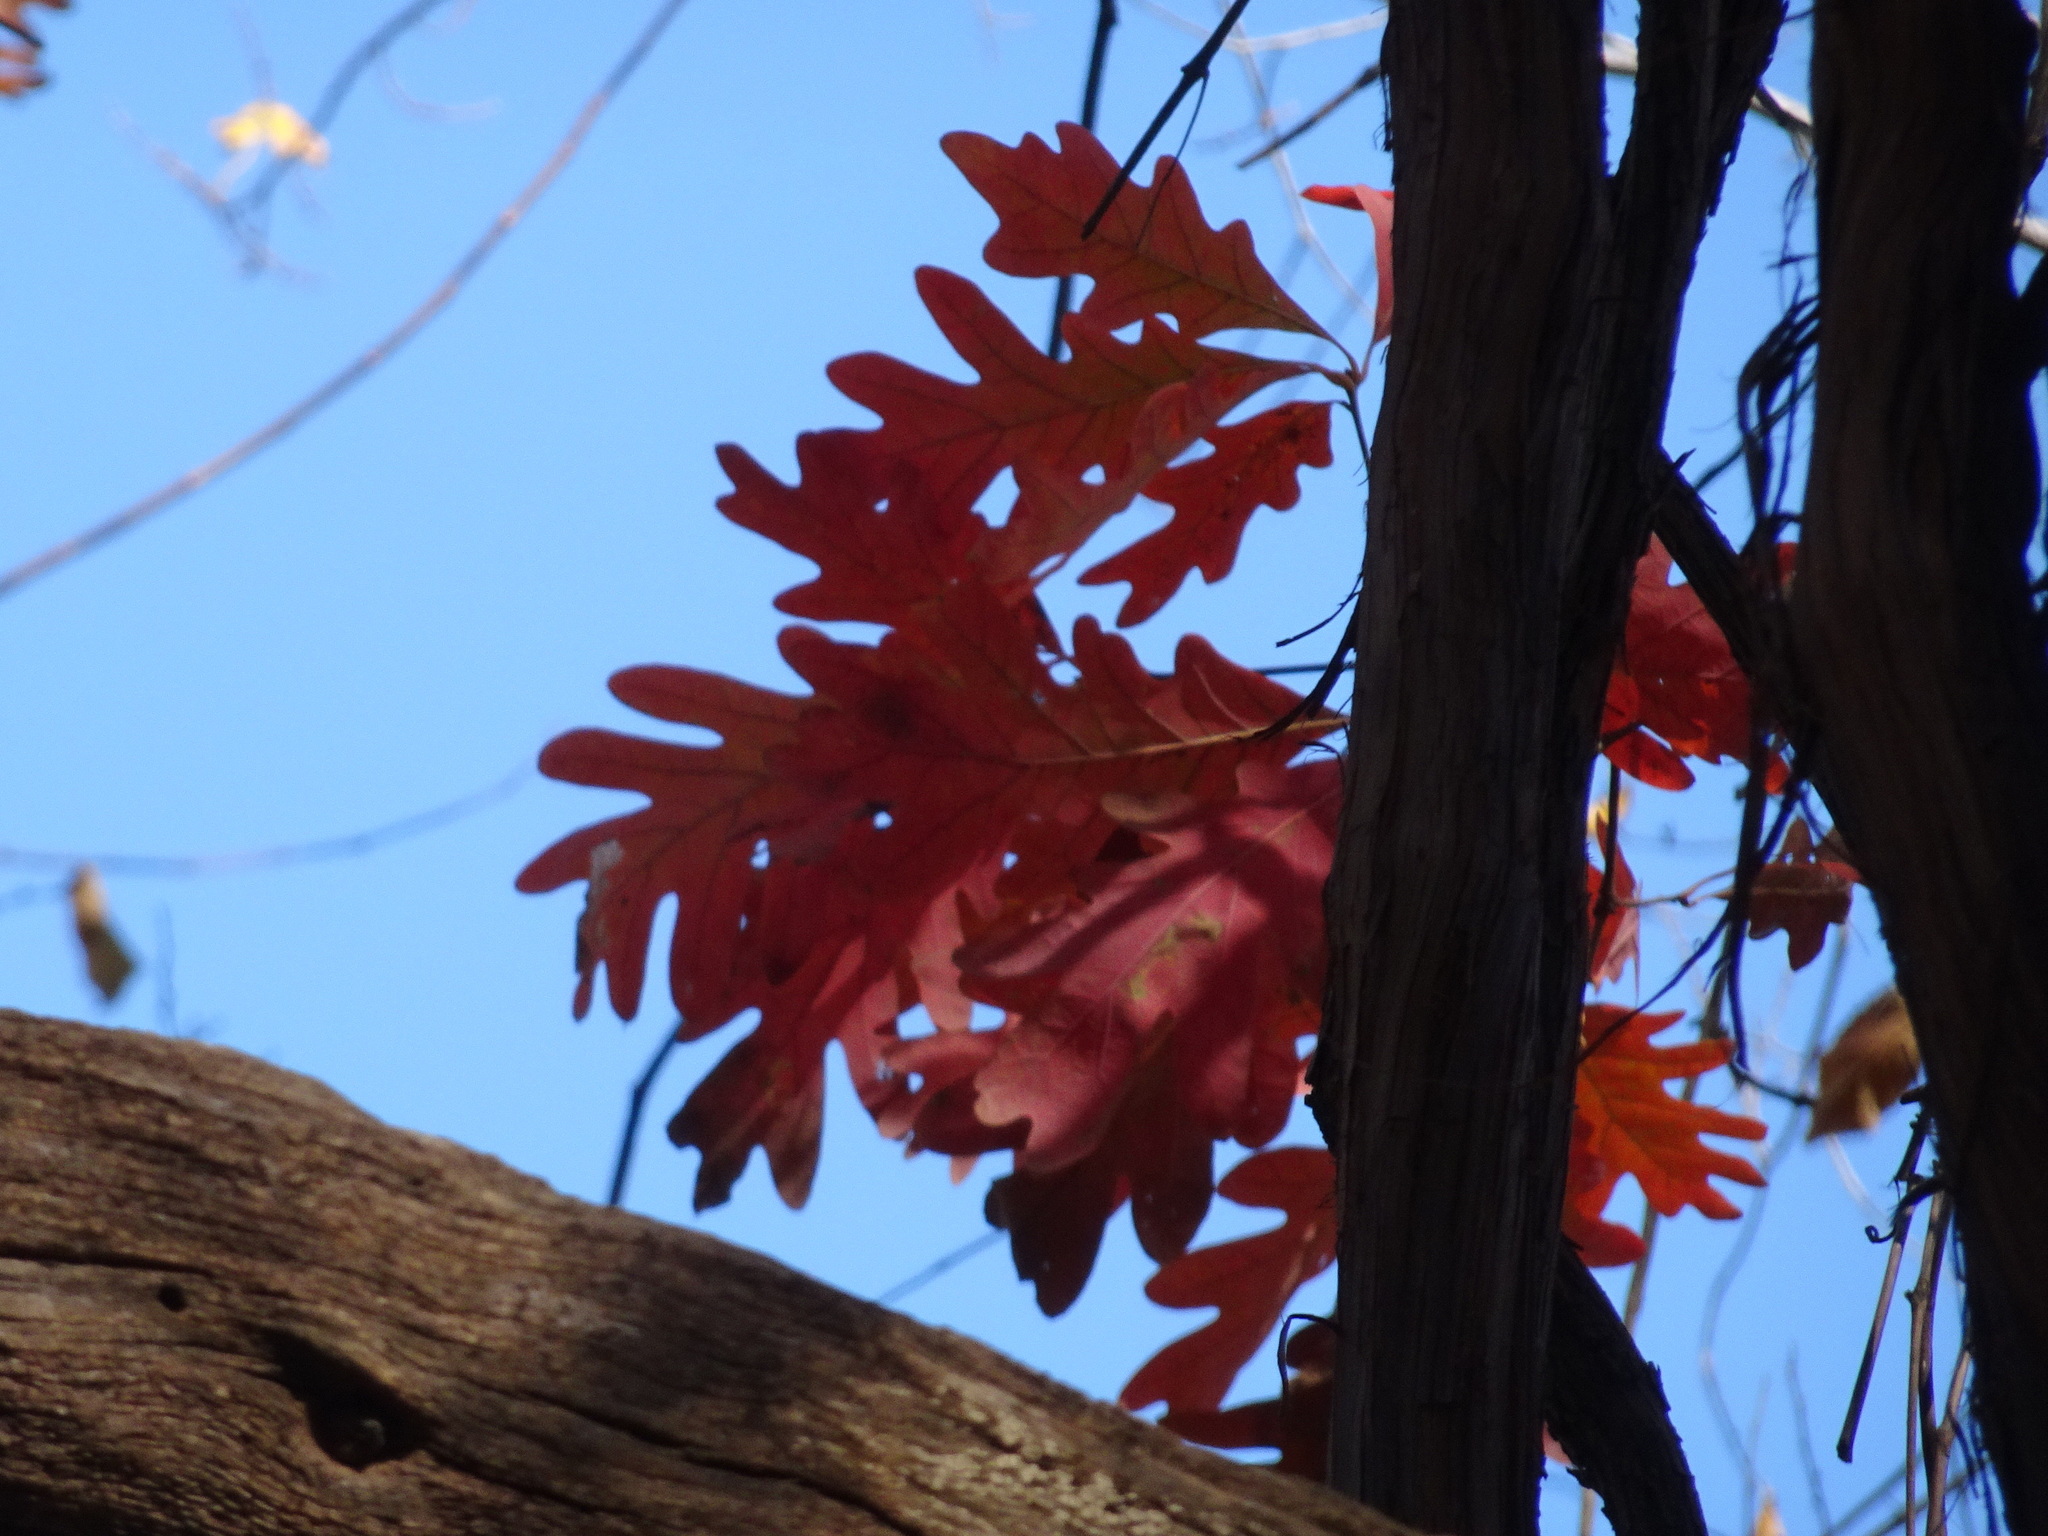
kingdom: Plantae
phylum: Tracheophyta
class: Magnoliopsida
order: Fagales
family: Fagaceae
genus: Quercus
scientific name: Quercus alba
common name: White oak
